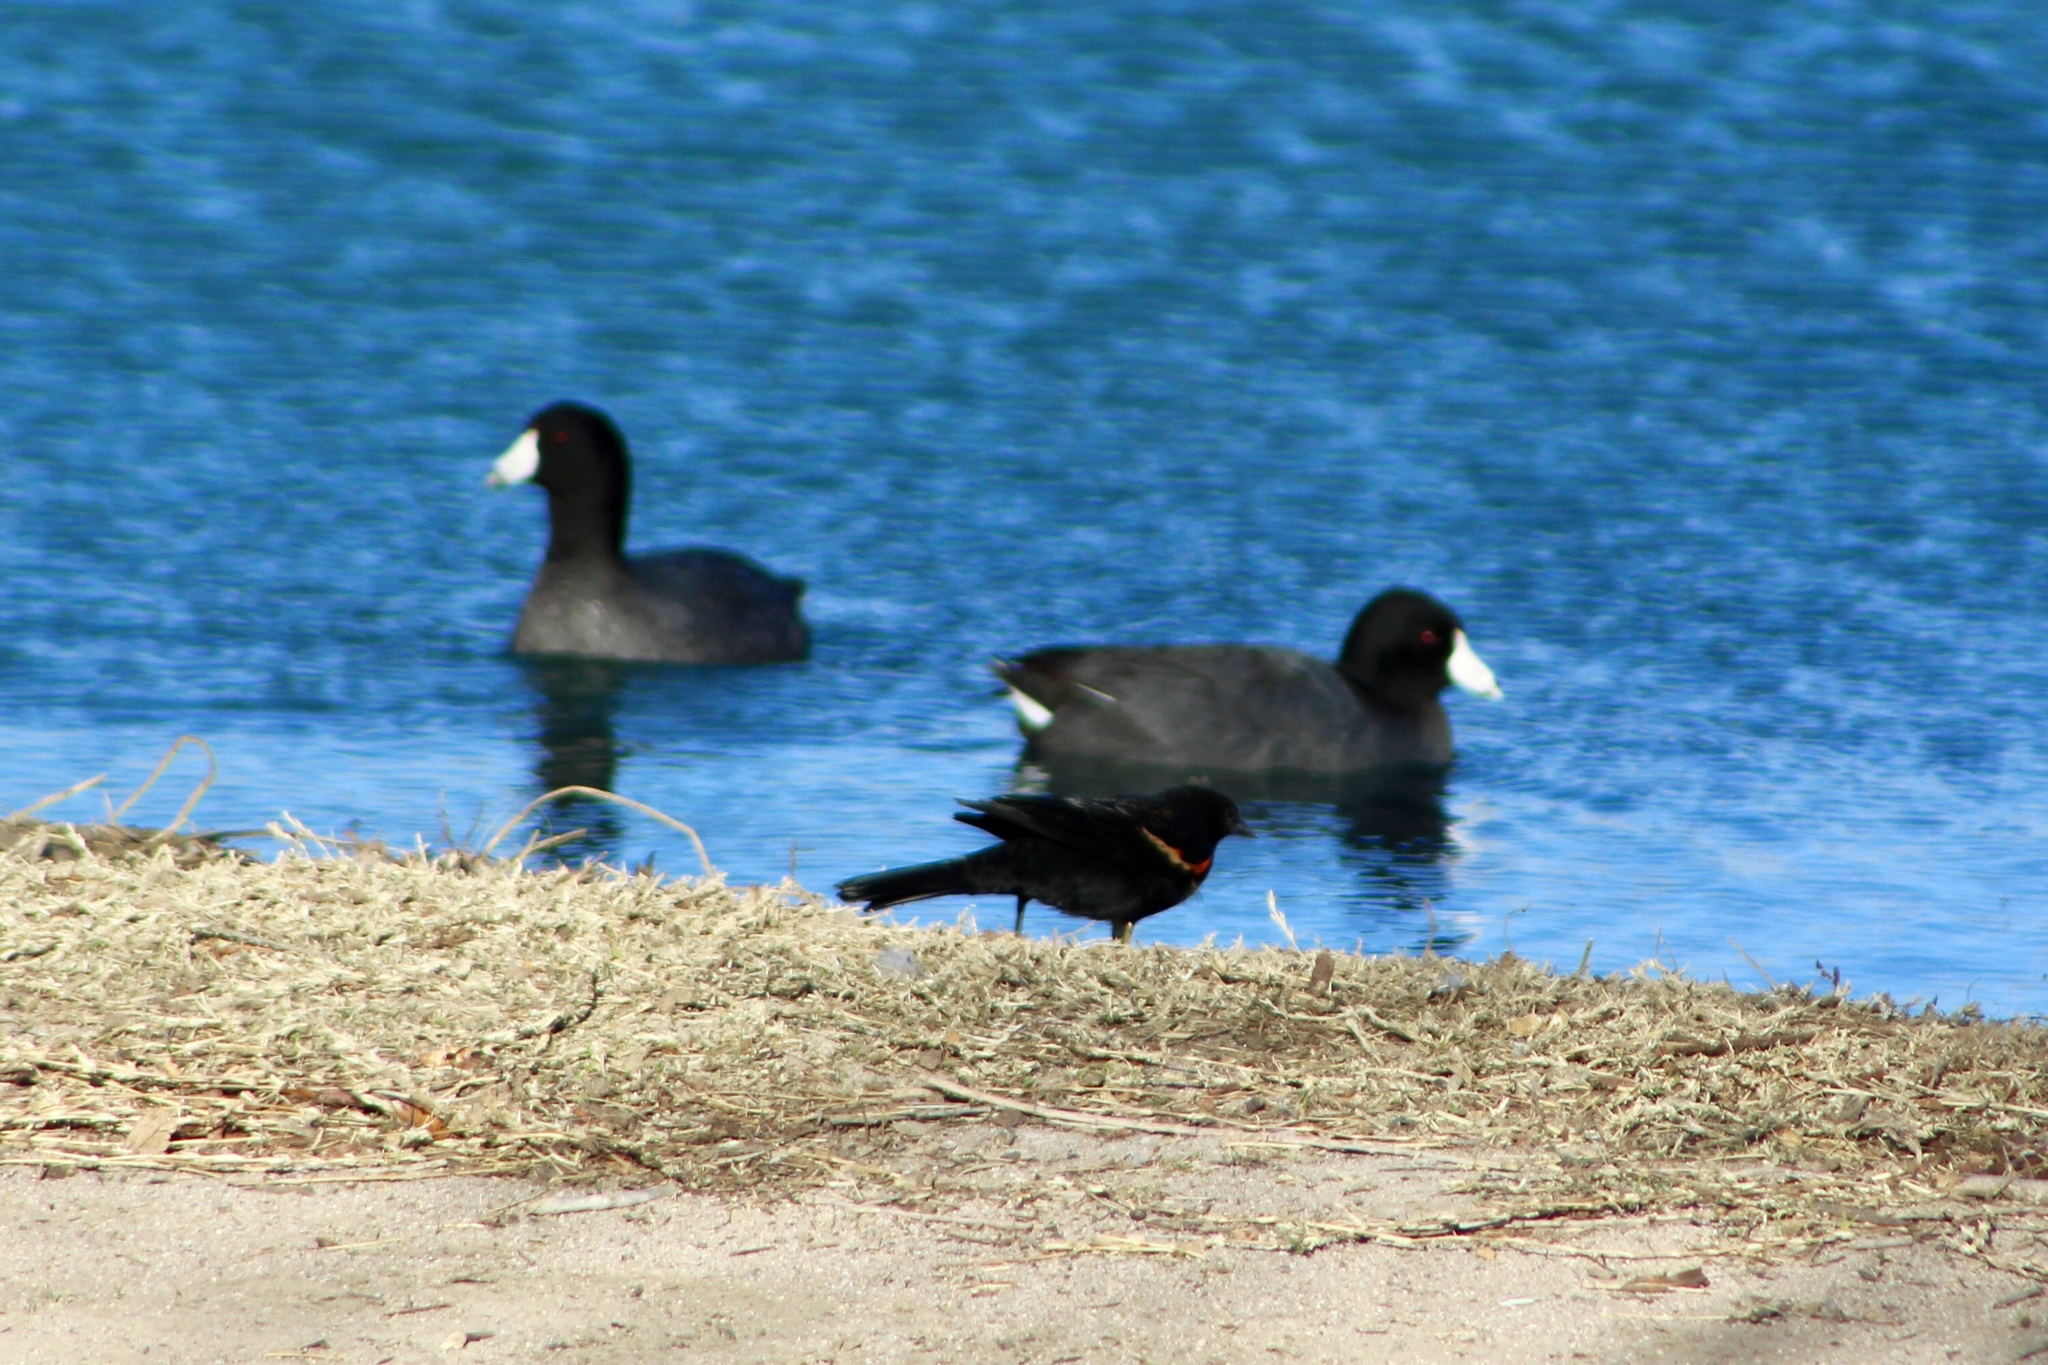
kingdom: Animalia
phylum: Chordata
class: Aves
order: Gruiformes
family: Rallidae
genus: Fulica
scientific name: Fulica americana
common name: American coot
